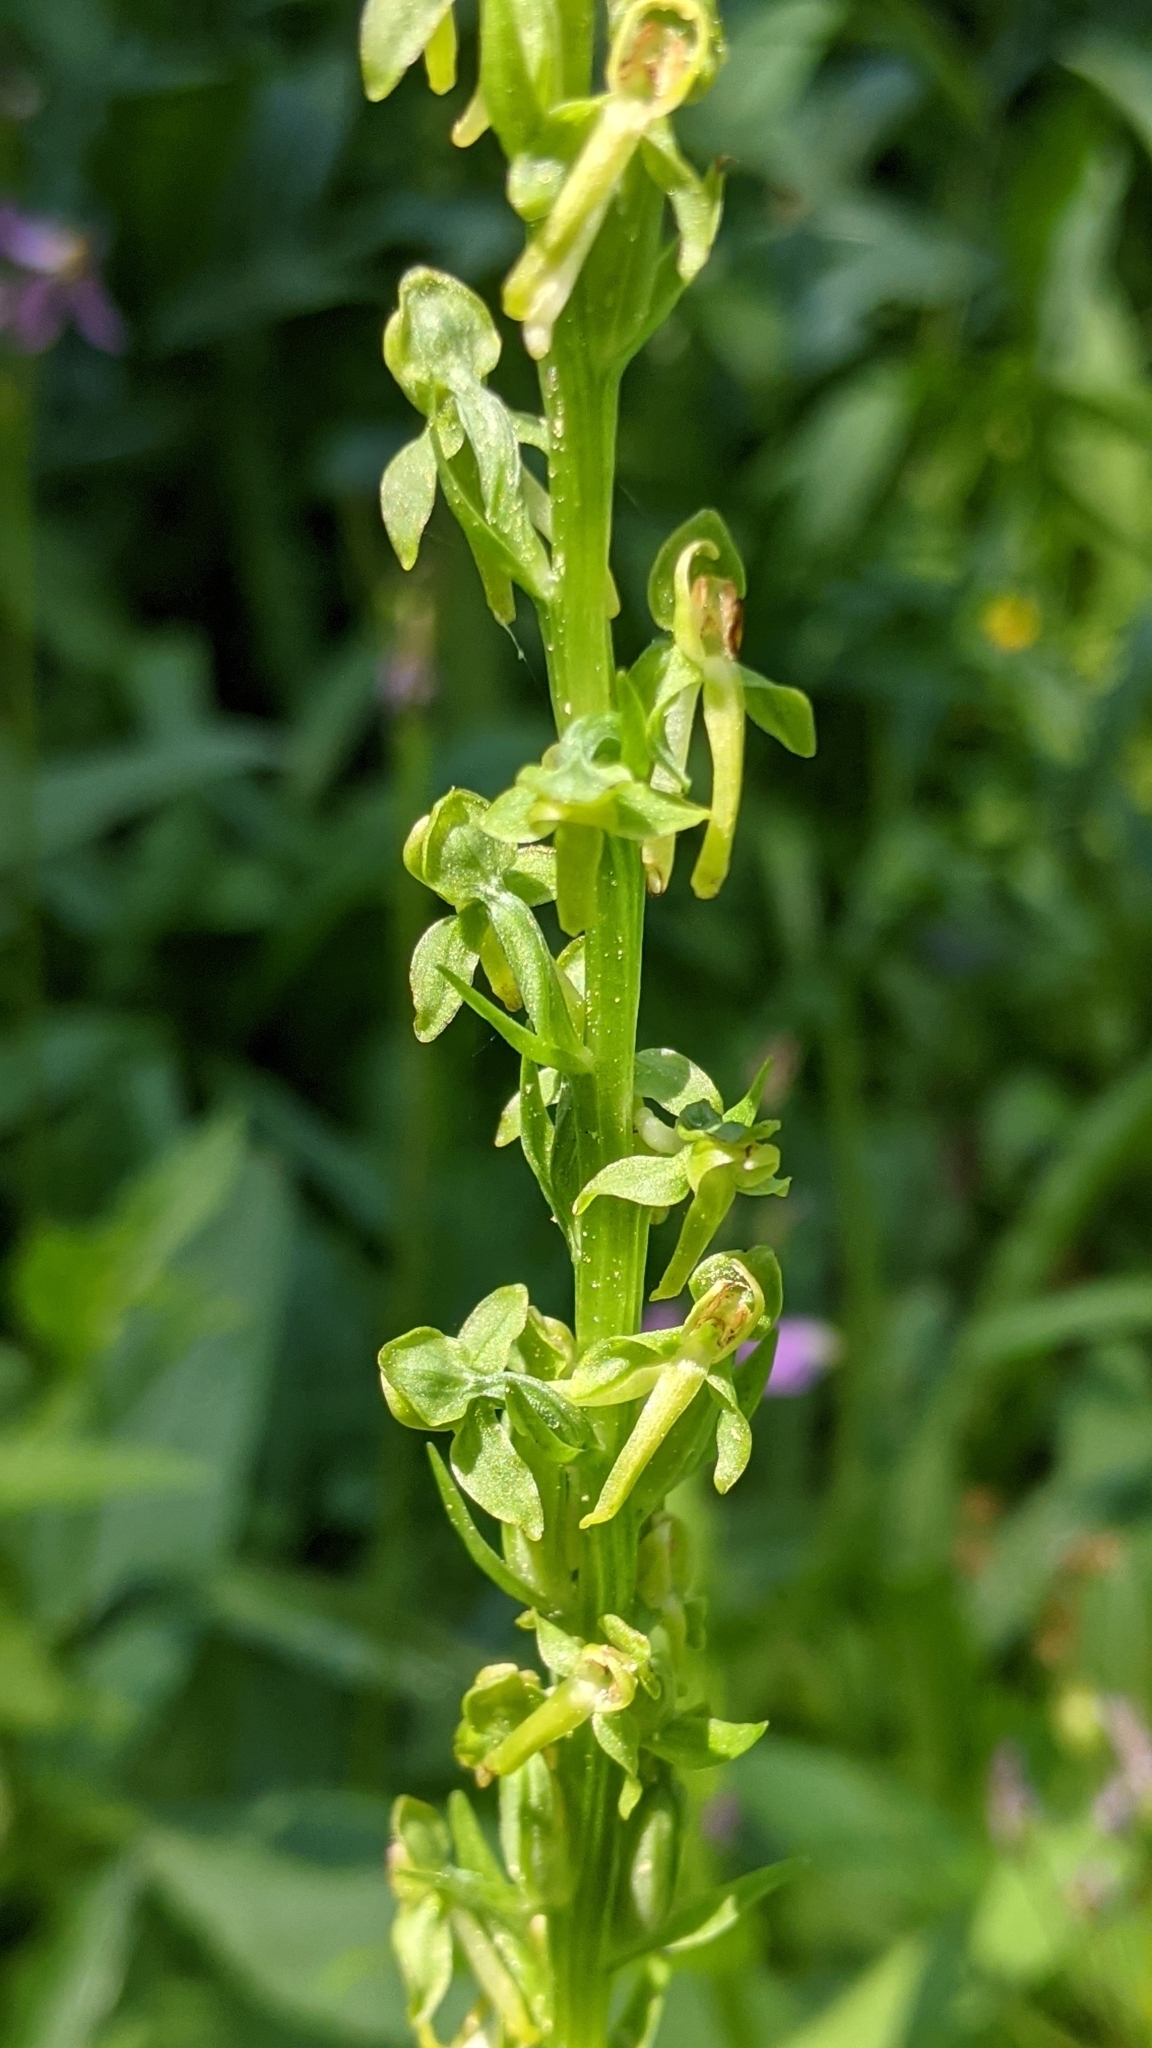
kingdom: Plantae
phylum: Tracheophyta
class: Liliopsida
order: Asparagales
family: Orchidaceae
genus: Platanthera
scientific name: Platanthera sparsiflora
